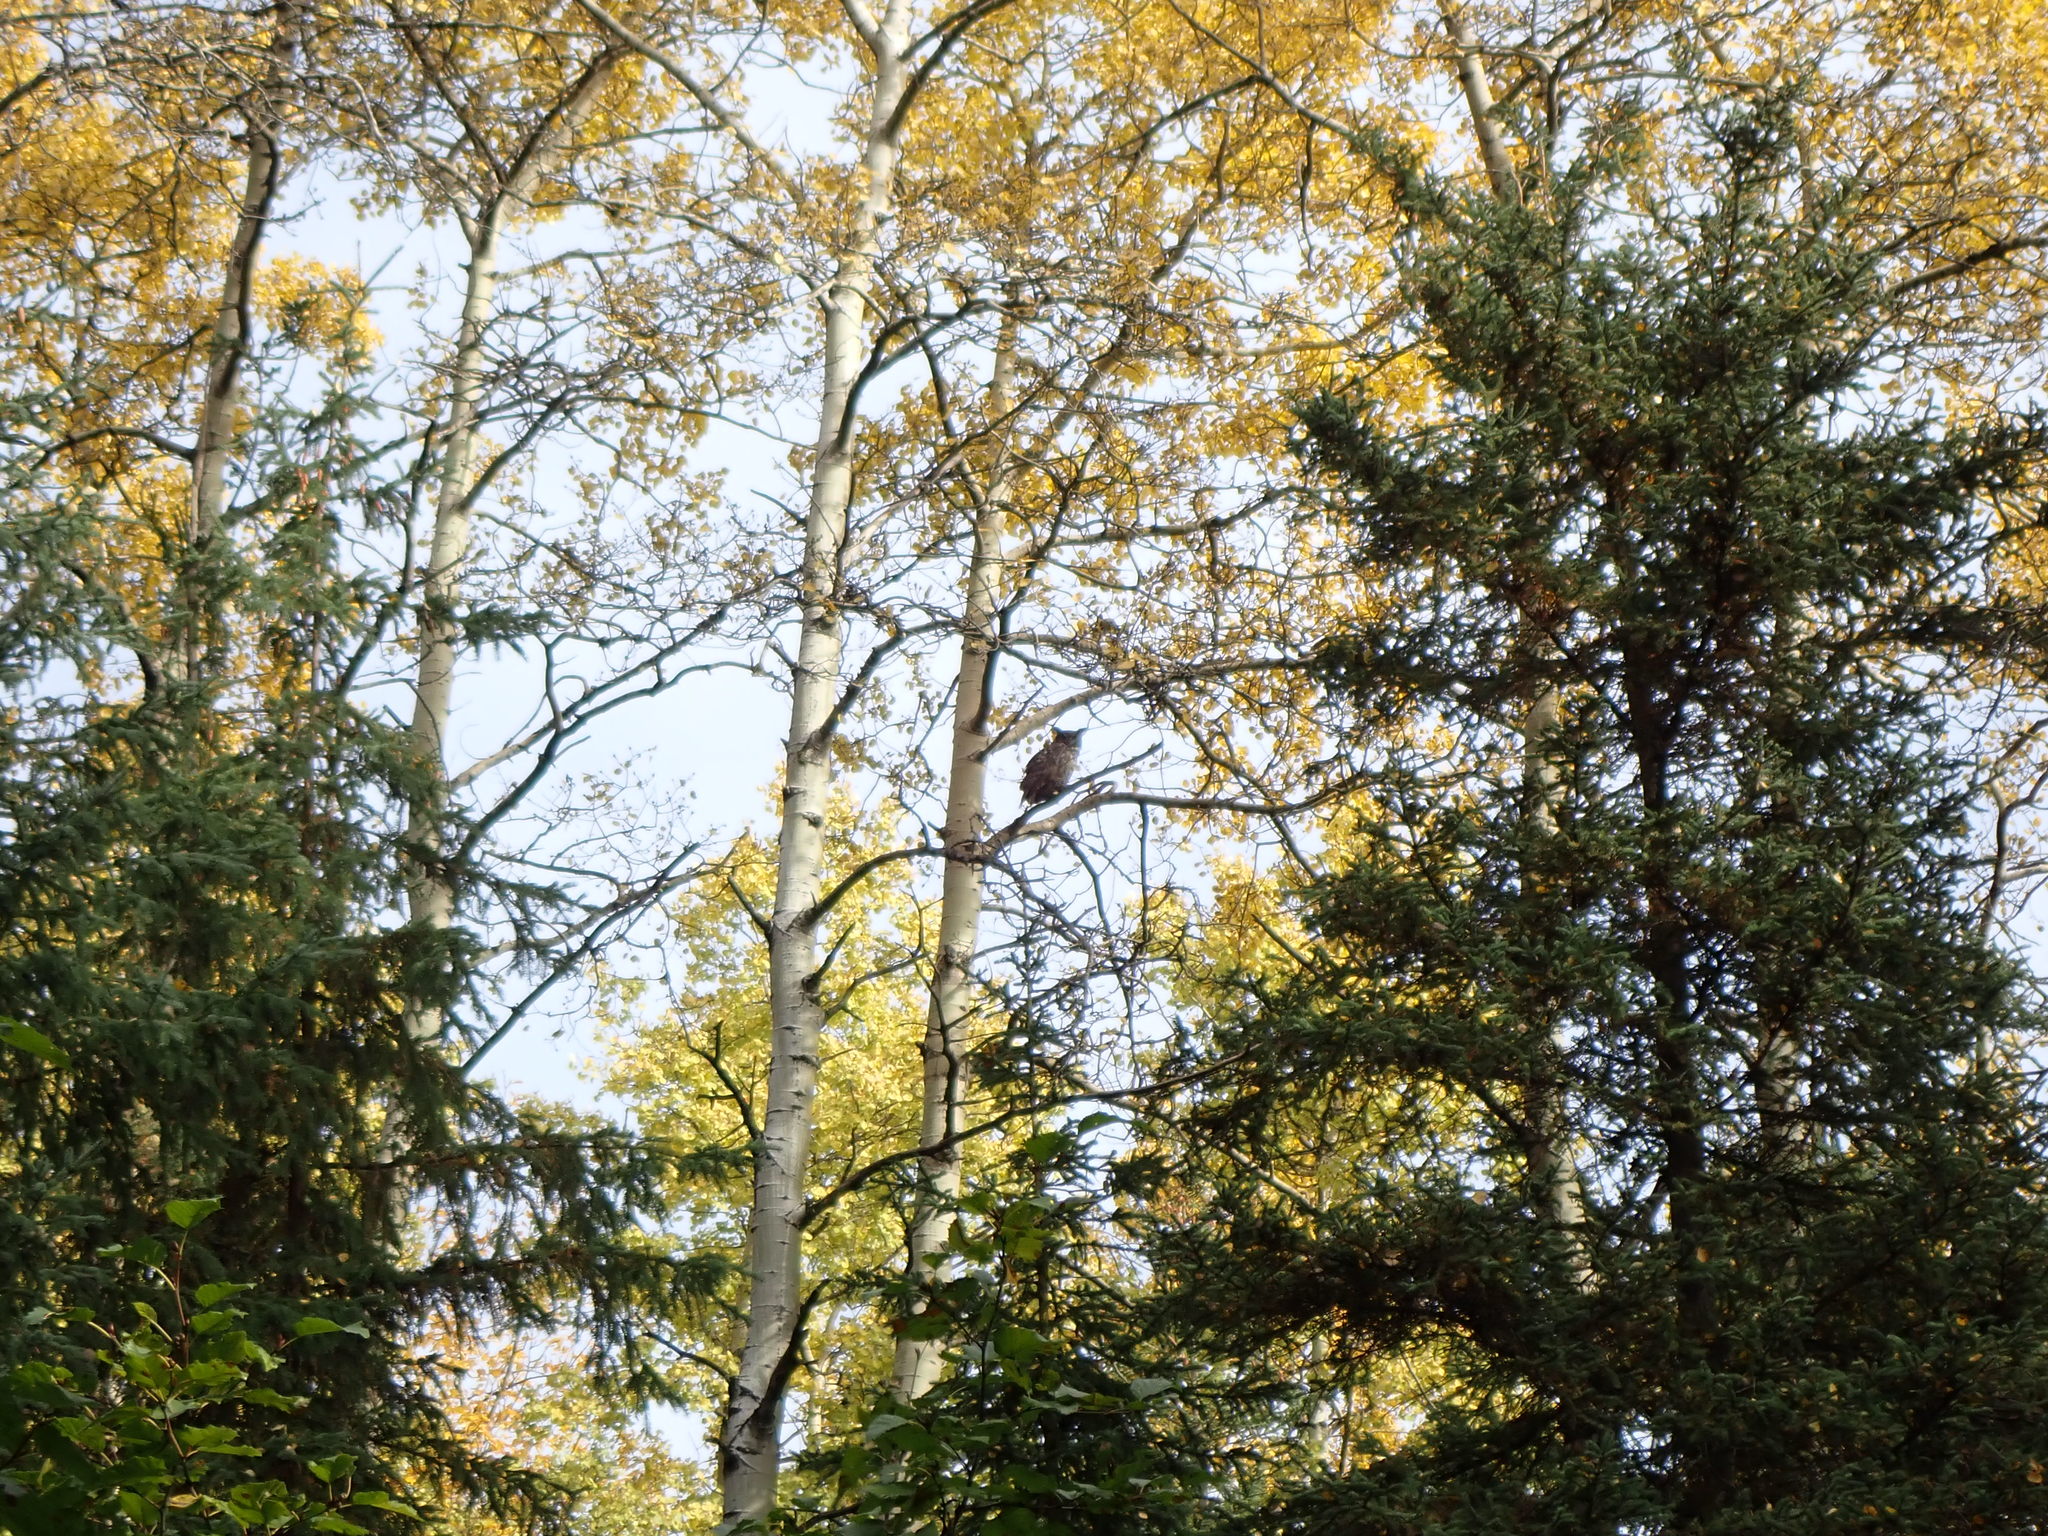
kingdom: Animalia
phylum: Chordata
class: Aves
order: Strigiformes
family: Strigidae
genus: Bubo
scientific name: Bubo virginianus
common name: Great horned owl
